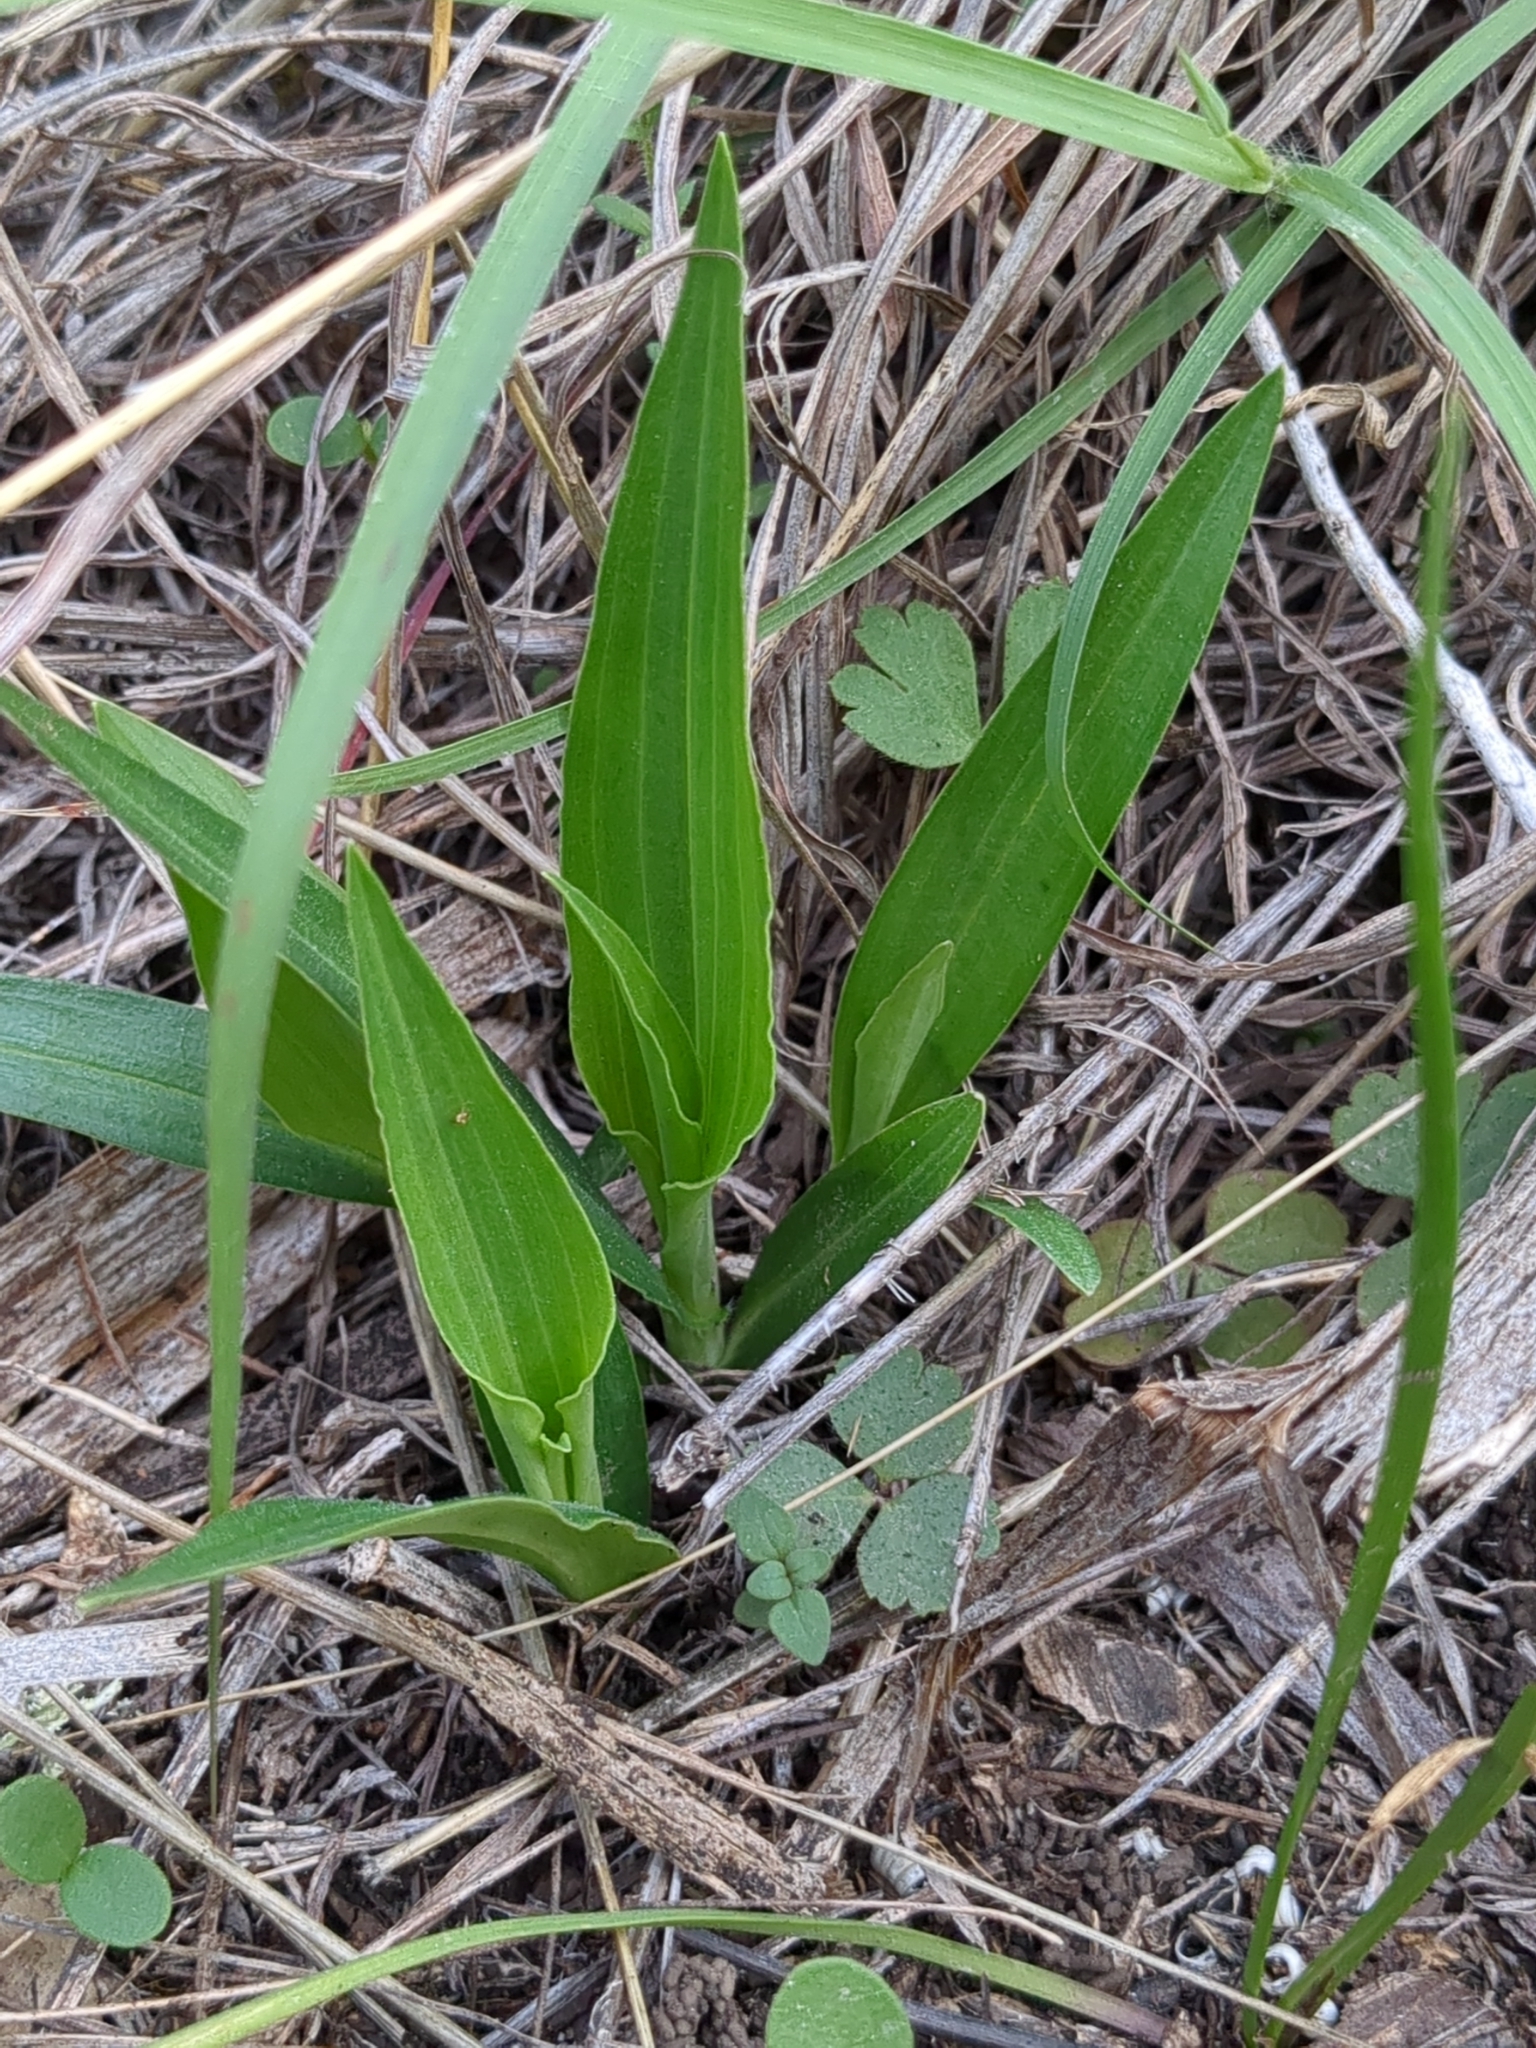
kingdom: Plantae
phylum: Tracheophyta
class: Liliopsida
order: Commelinales
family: Commelinaceae
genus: Commelina
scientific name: Commelina erecta
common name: Blousel blommetjie
